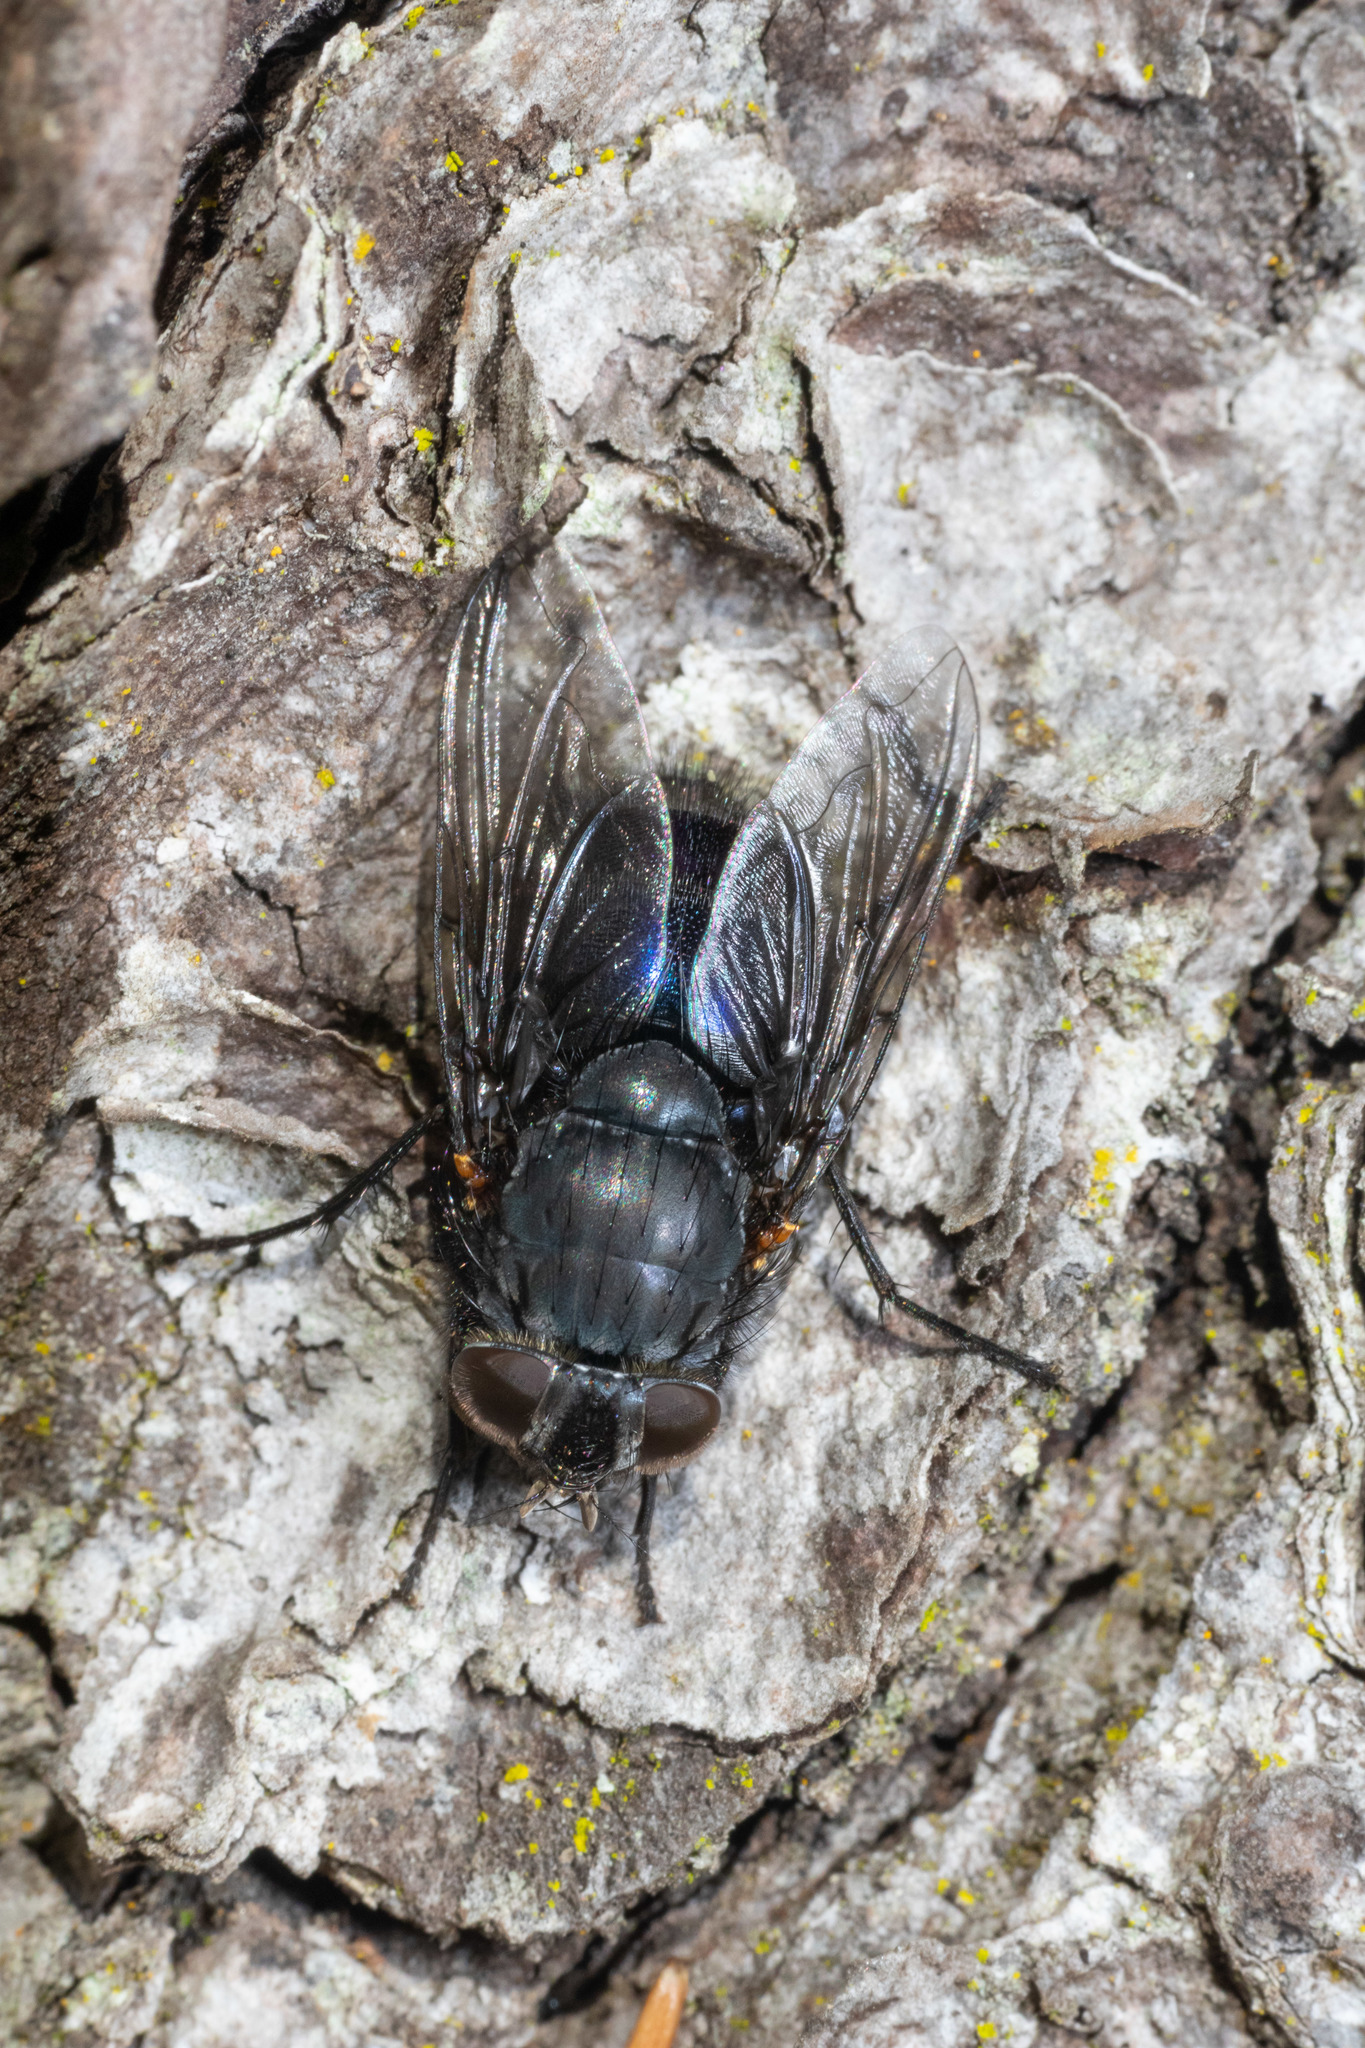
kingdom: Animalia
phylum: Arthropoda
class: Insecta
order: Diptera
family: Calliphoridae
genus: Calliphora
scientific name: Calliphora quadrimaculata
